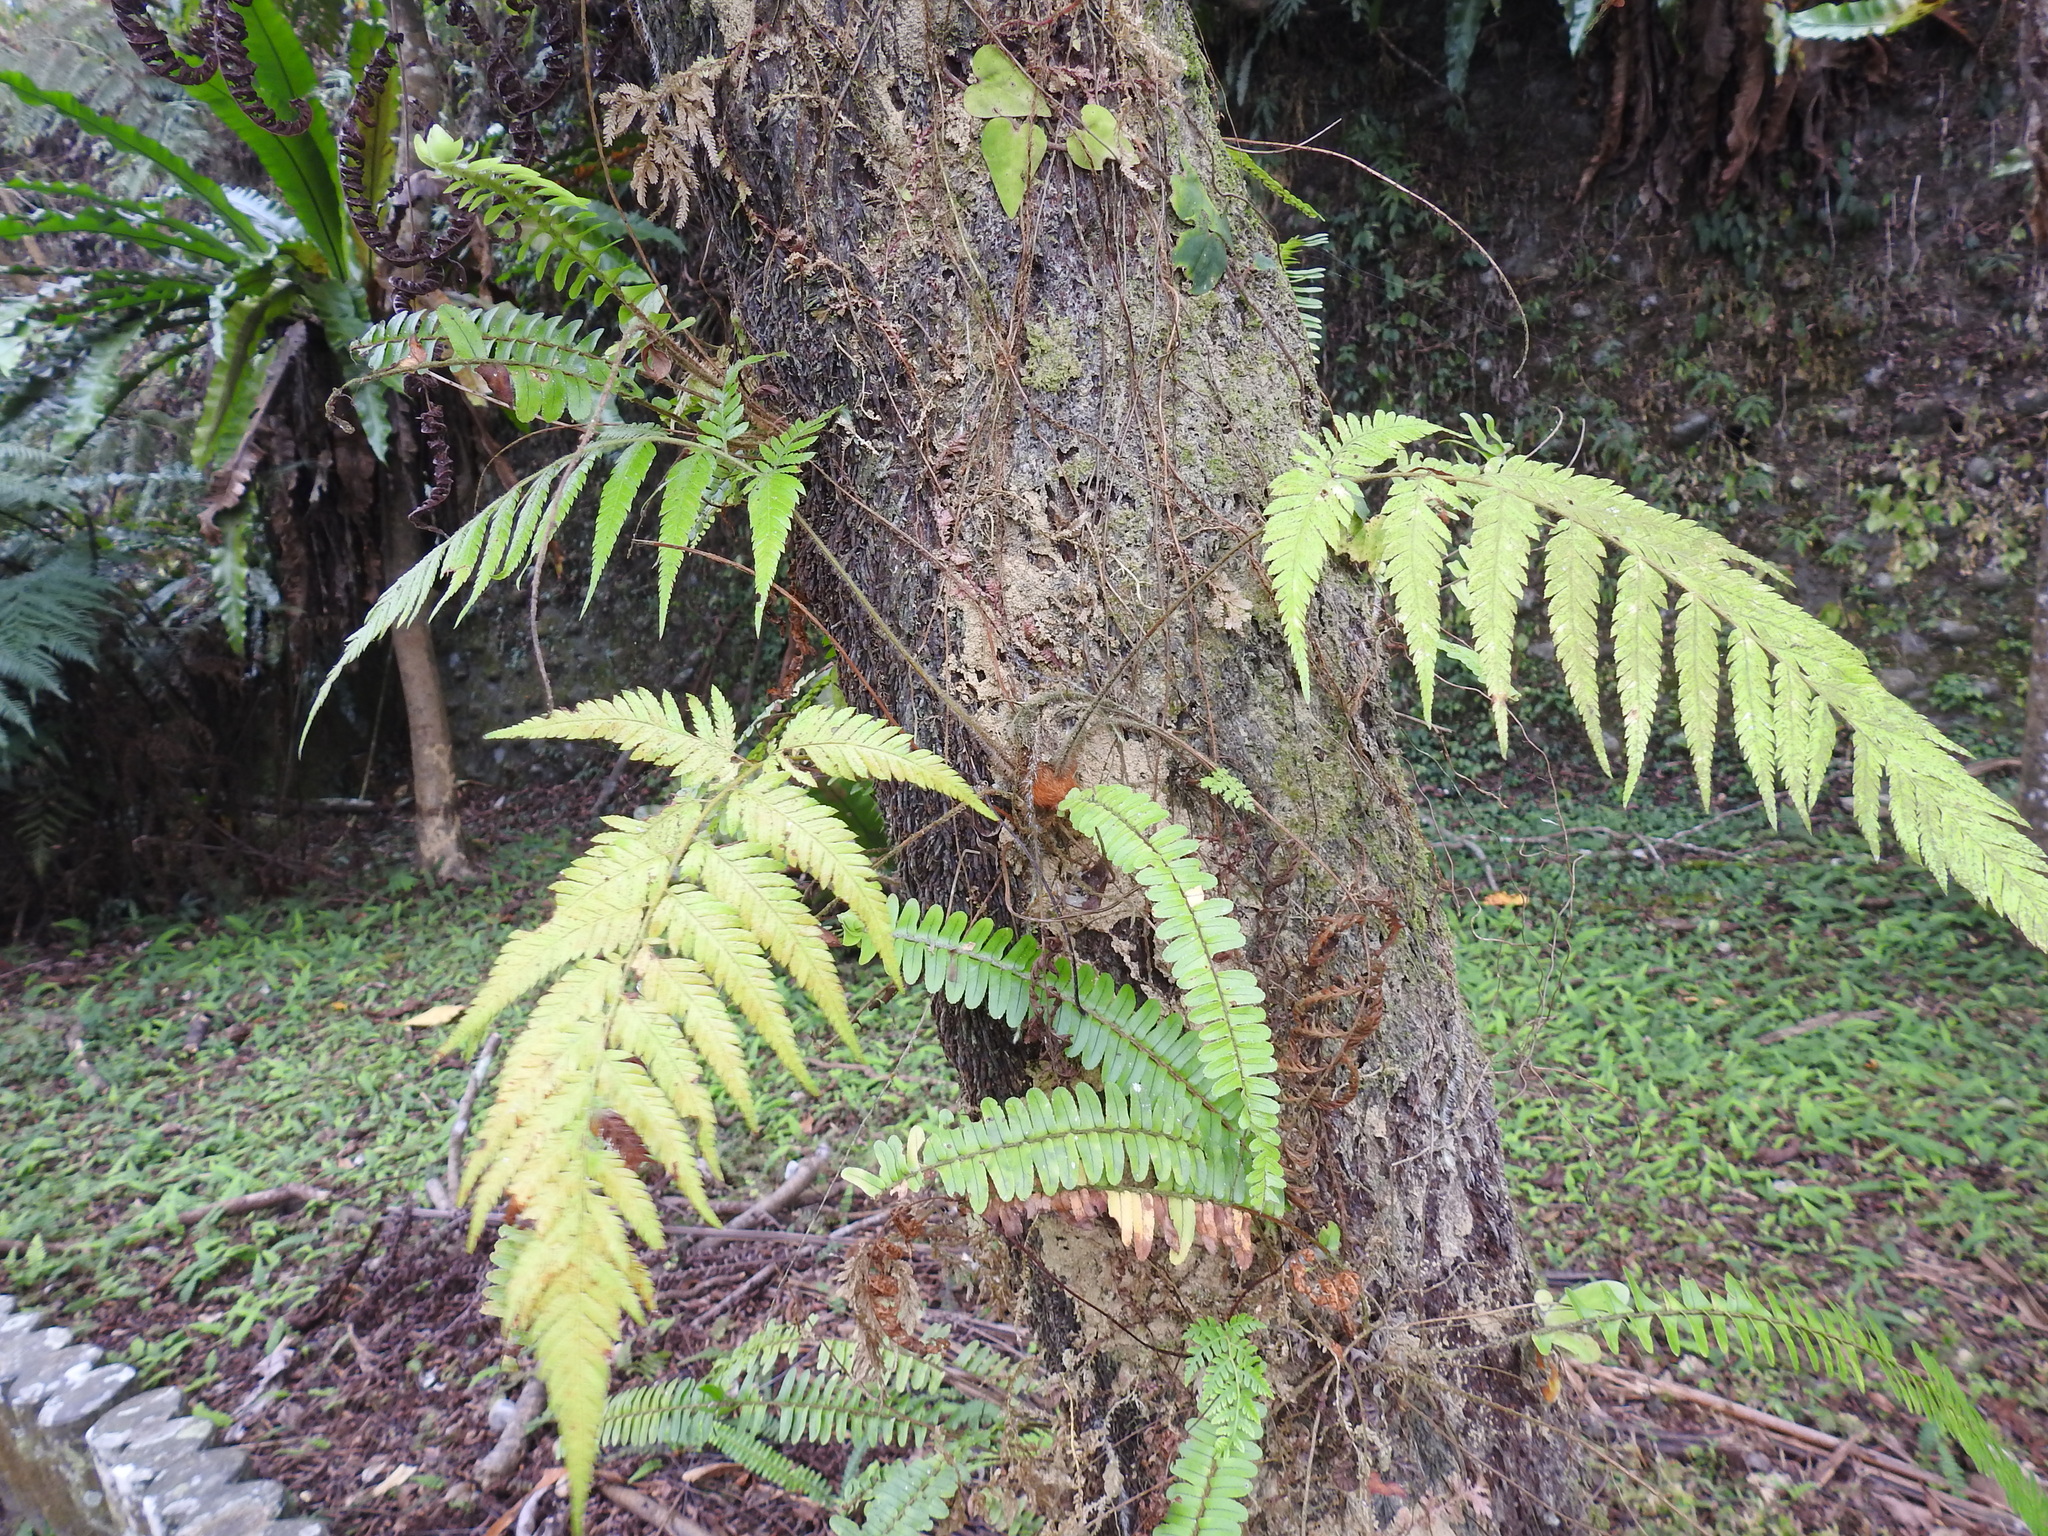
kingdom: Plantae
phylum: Tracheophyta
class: Polypodiopsida
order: Cyatheales
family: Cibotiaceae
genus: Cibotium
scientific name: Cibotium barometz
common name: Scythian-lamb
